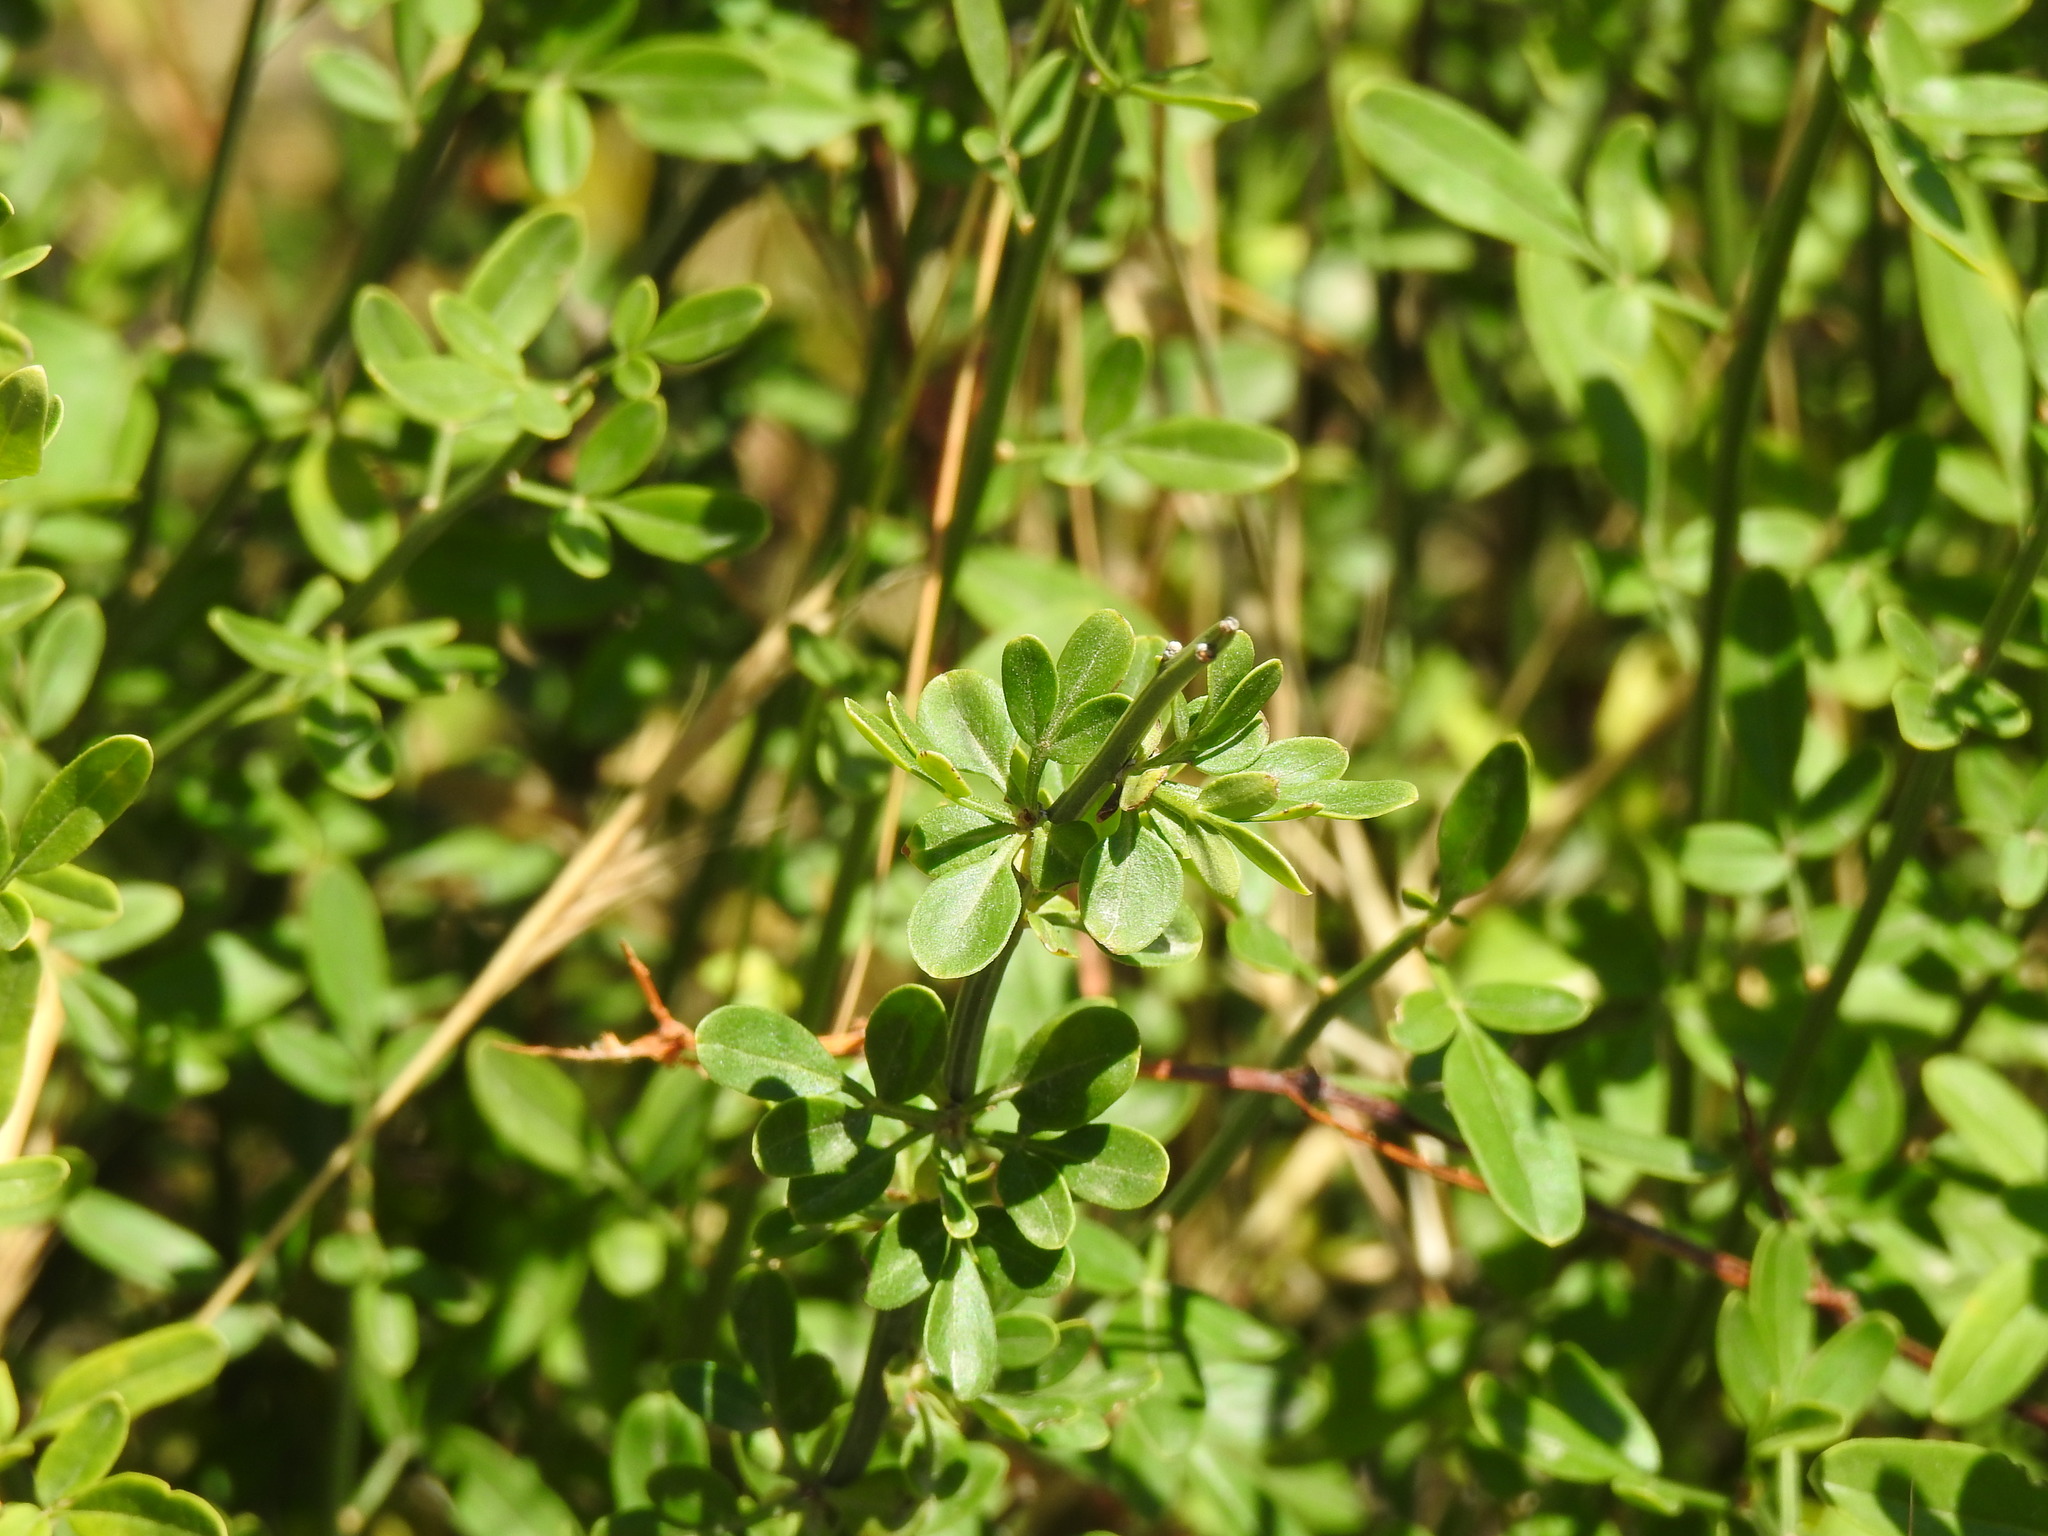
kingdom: Plantae
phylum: Tracheophyta
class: Magnoliopsida
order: Lamiales
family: Oleaceae
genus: Chrysojasminum
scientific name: Chrysojasminum fruticans
